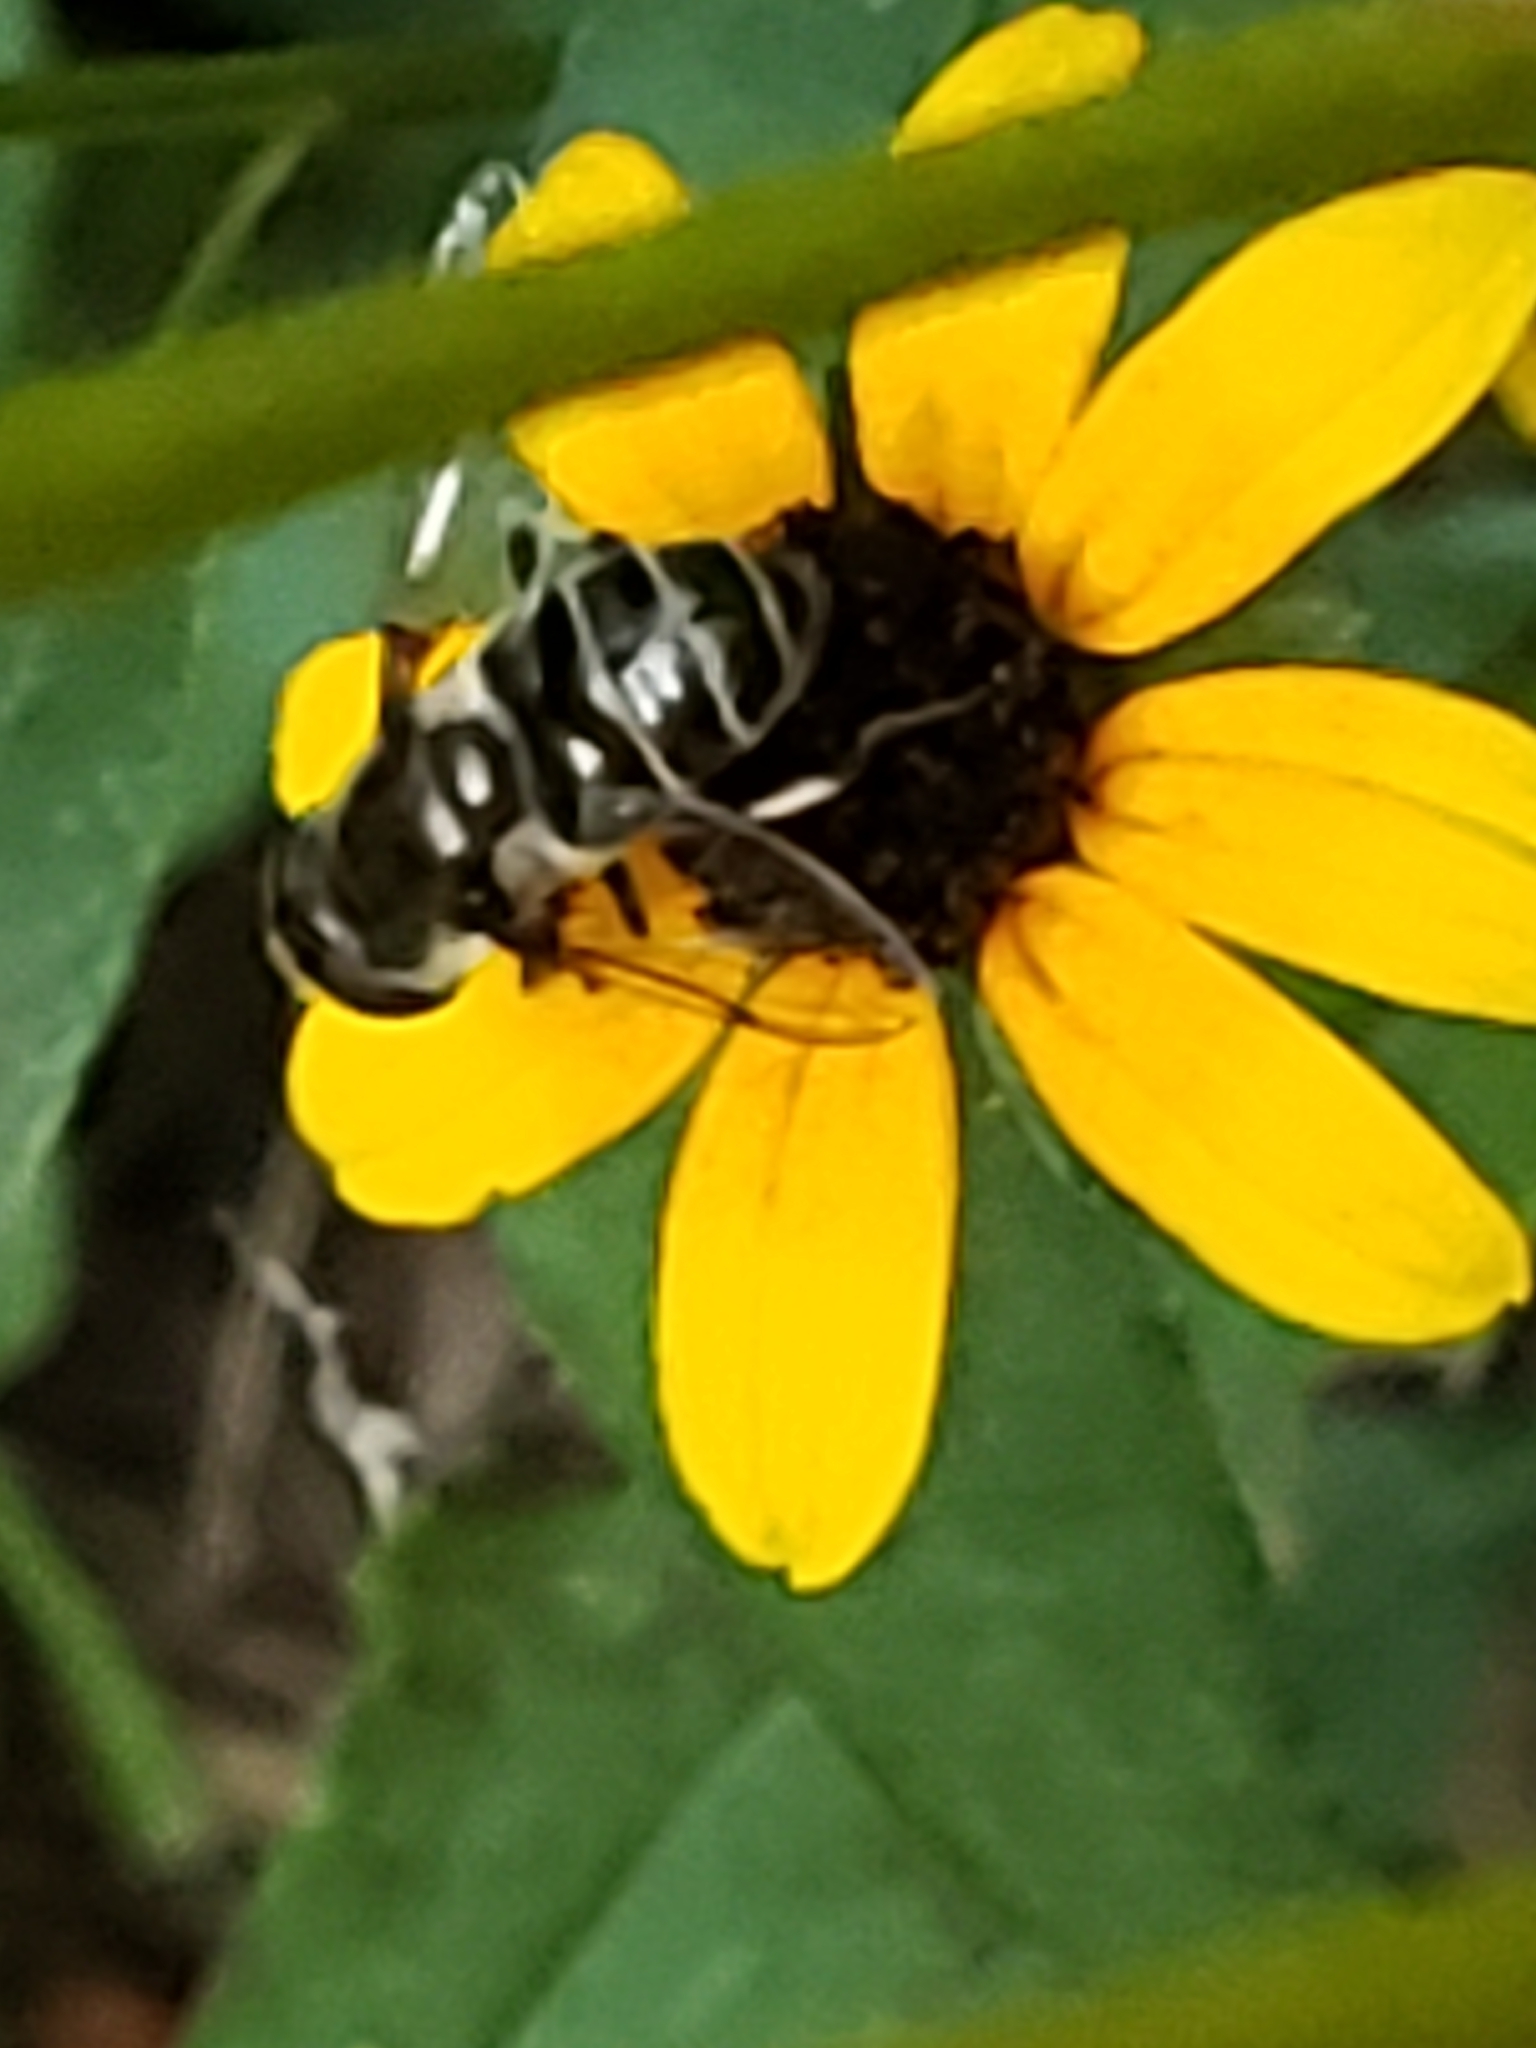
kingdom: Animalia
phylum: Arthropoda
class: Insecta
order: Diptera
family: Syrphidae
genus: Eristalis
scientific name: Eristalis dimidiata
